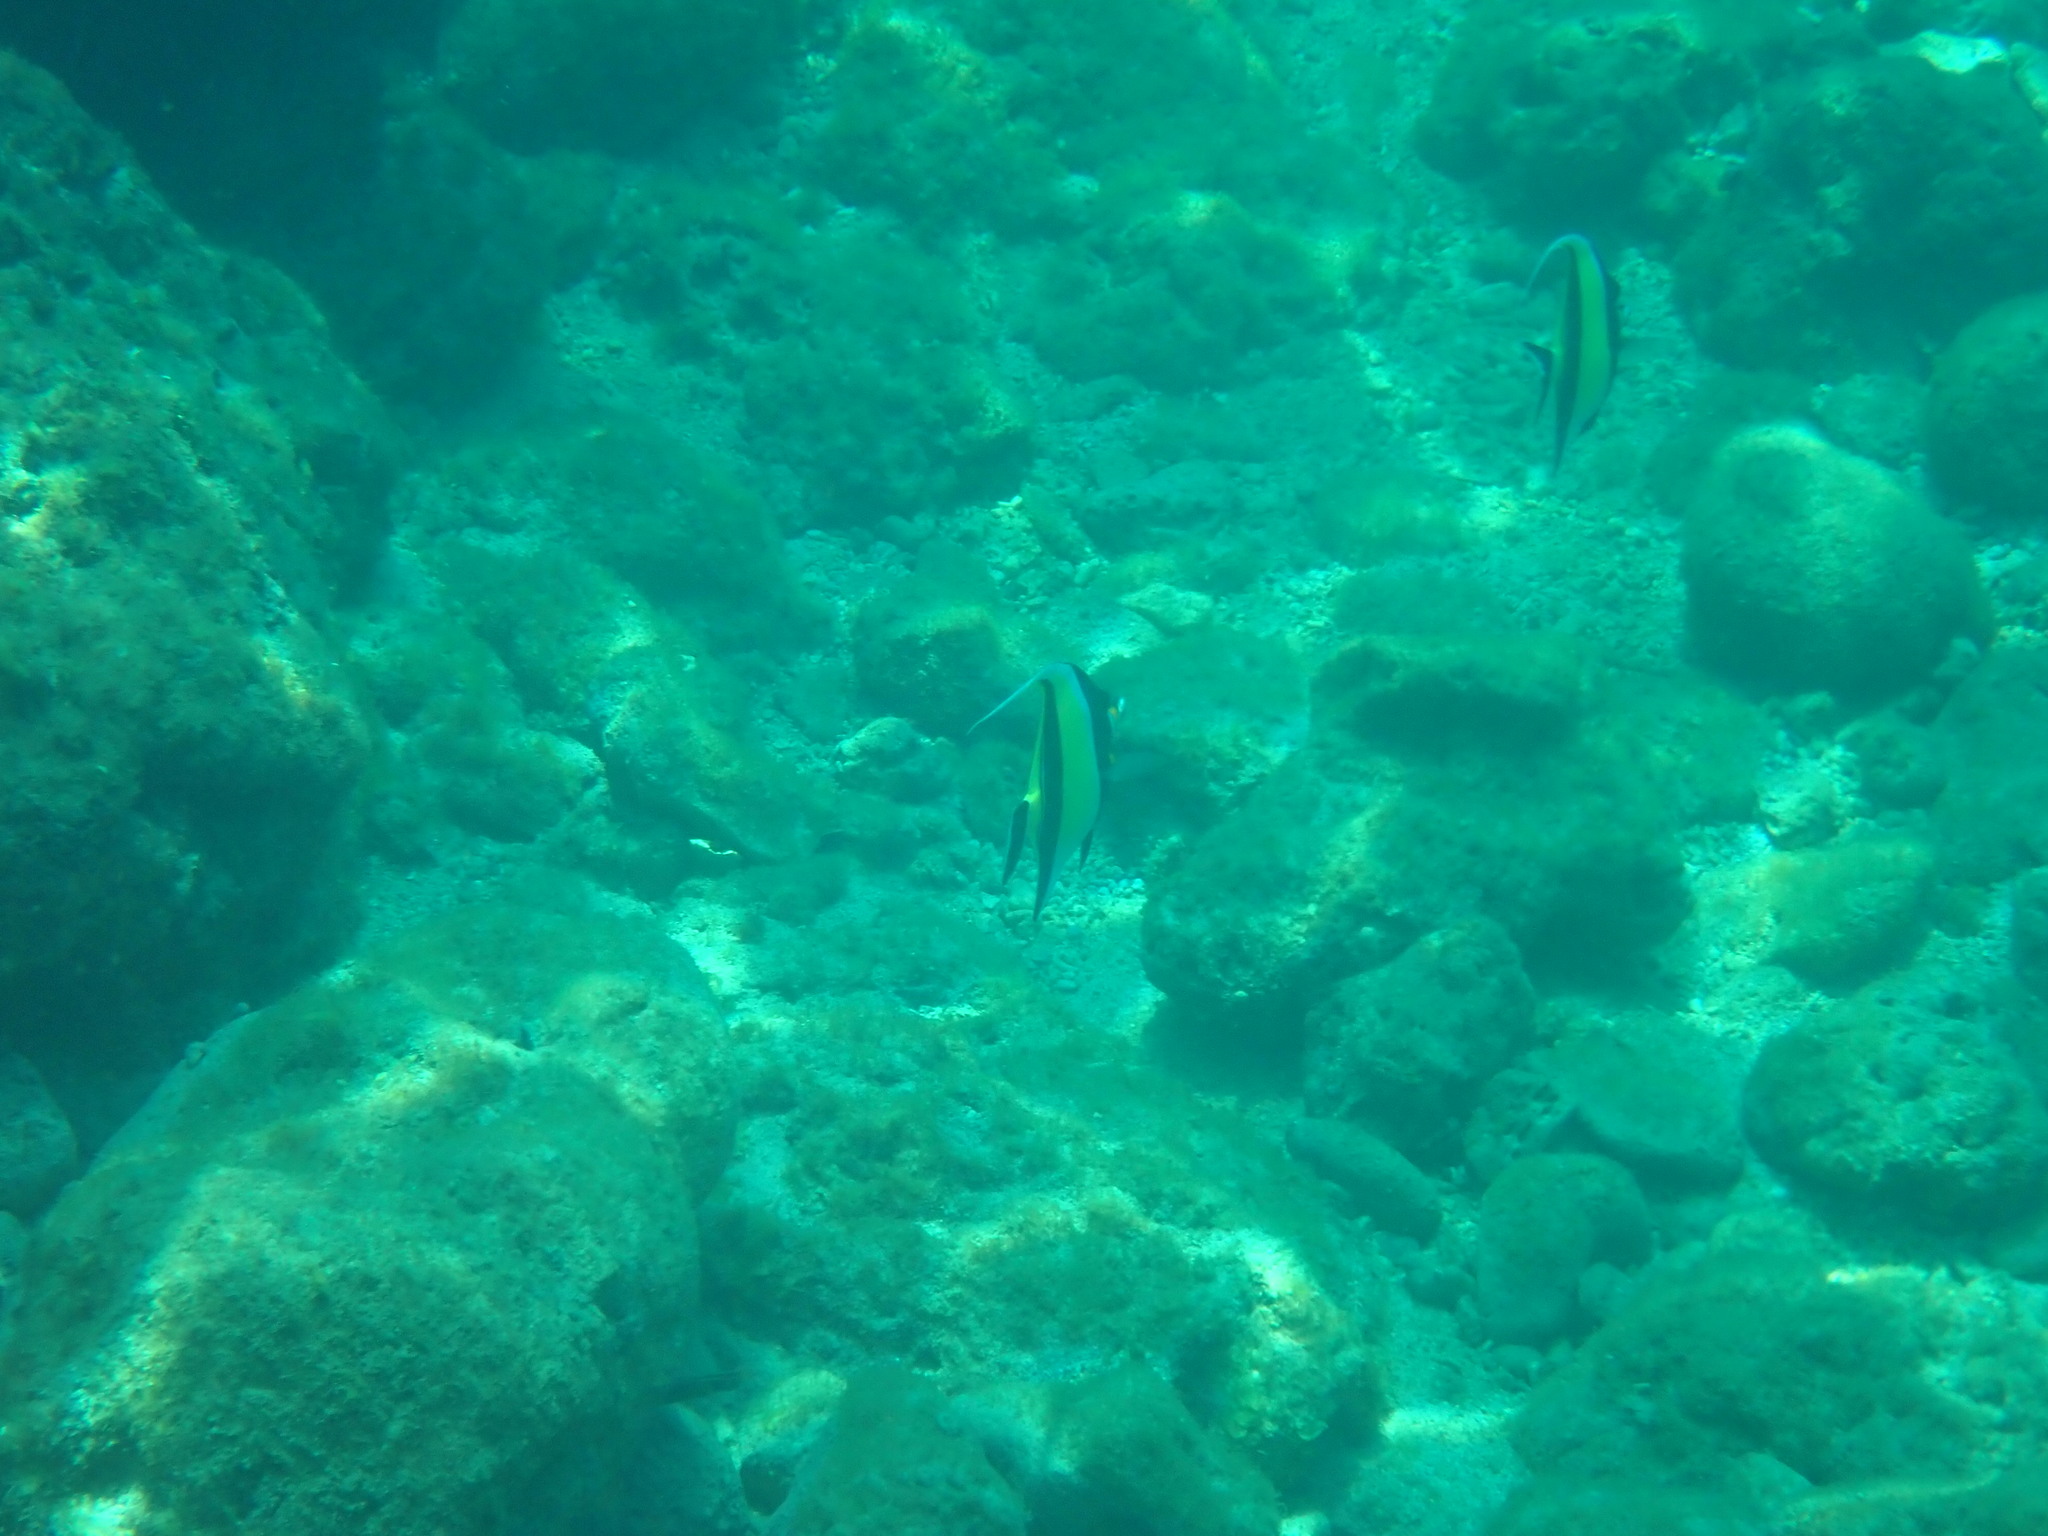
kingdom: Animalia
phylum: Chordata
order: Perciformes
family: Zanclidae
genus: Zanclus
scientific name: Zanclus cornutus
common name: Moorish idol
